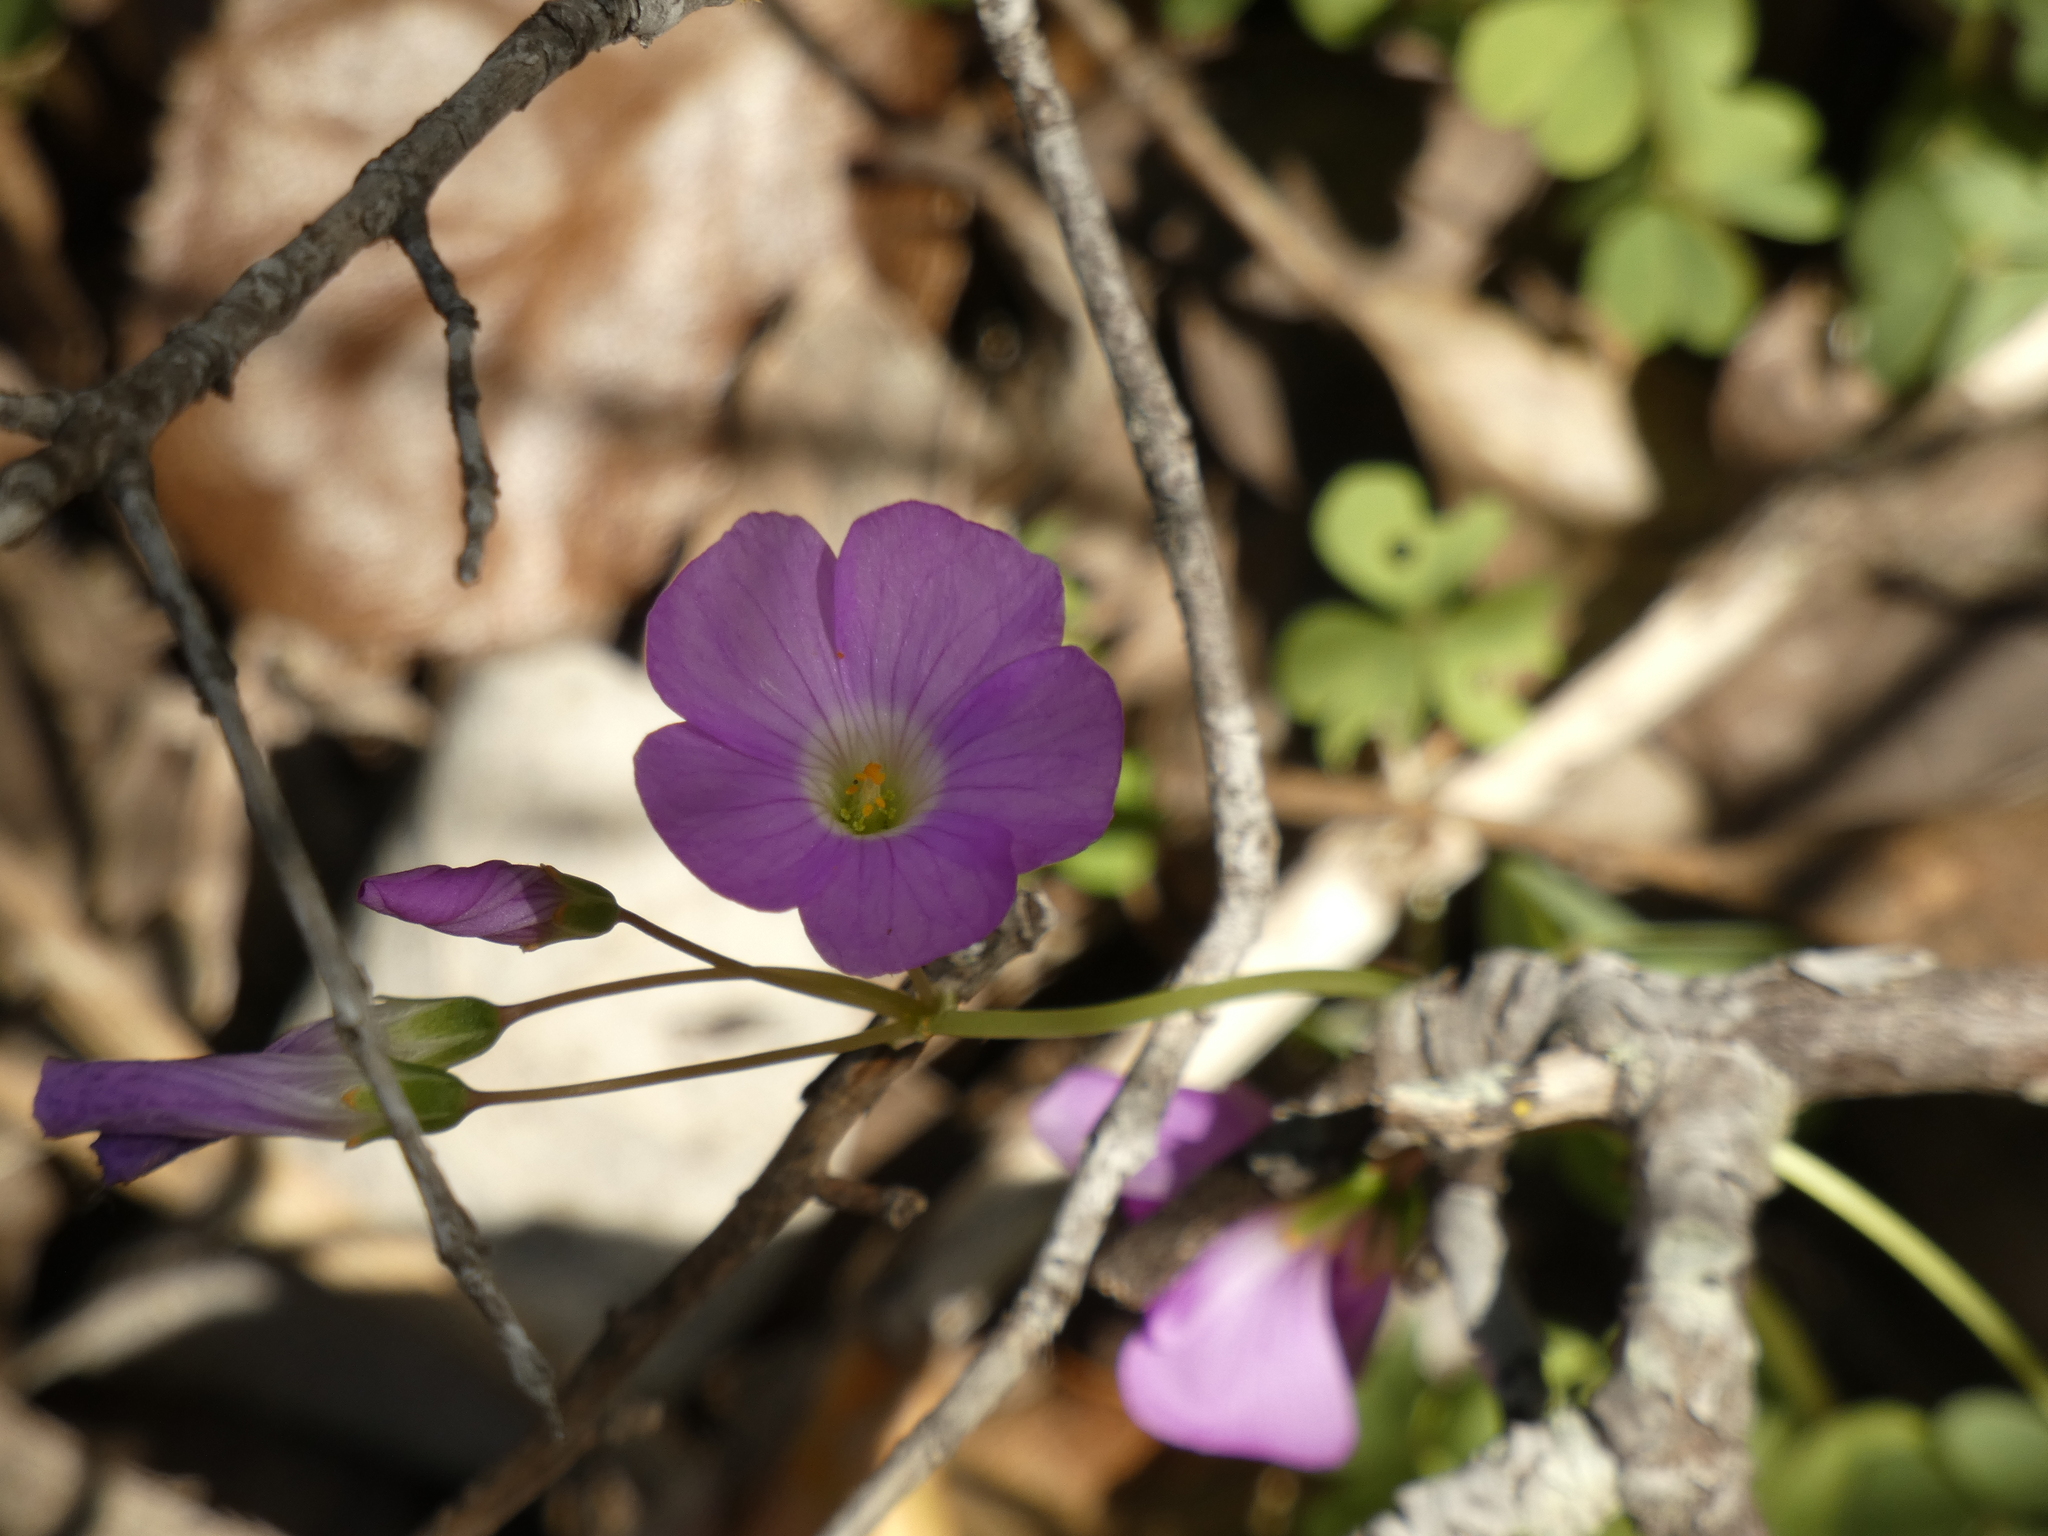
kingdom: Plantae
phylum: Tracheophyta
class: Magnoliopsida
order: Oxalidales
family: Oxalidaceae
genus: Oxalis
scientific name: Oxalis arenaria
